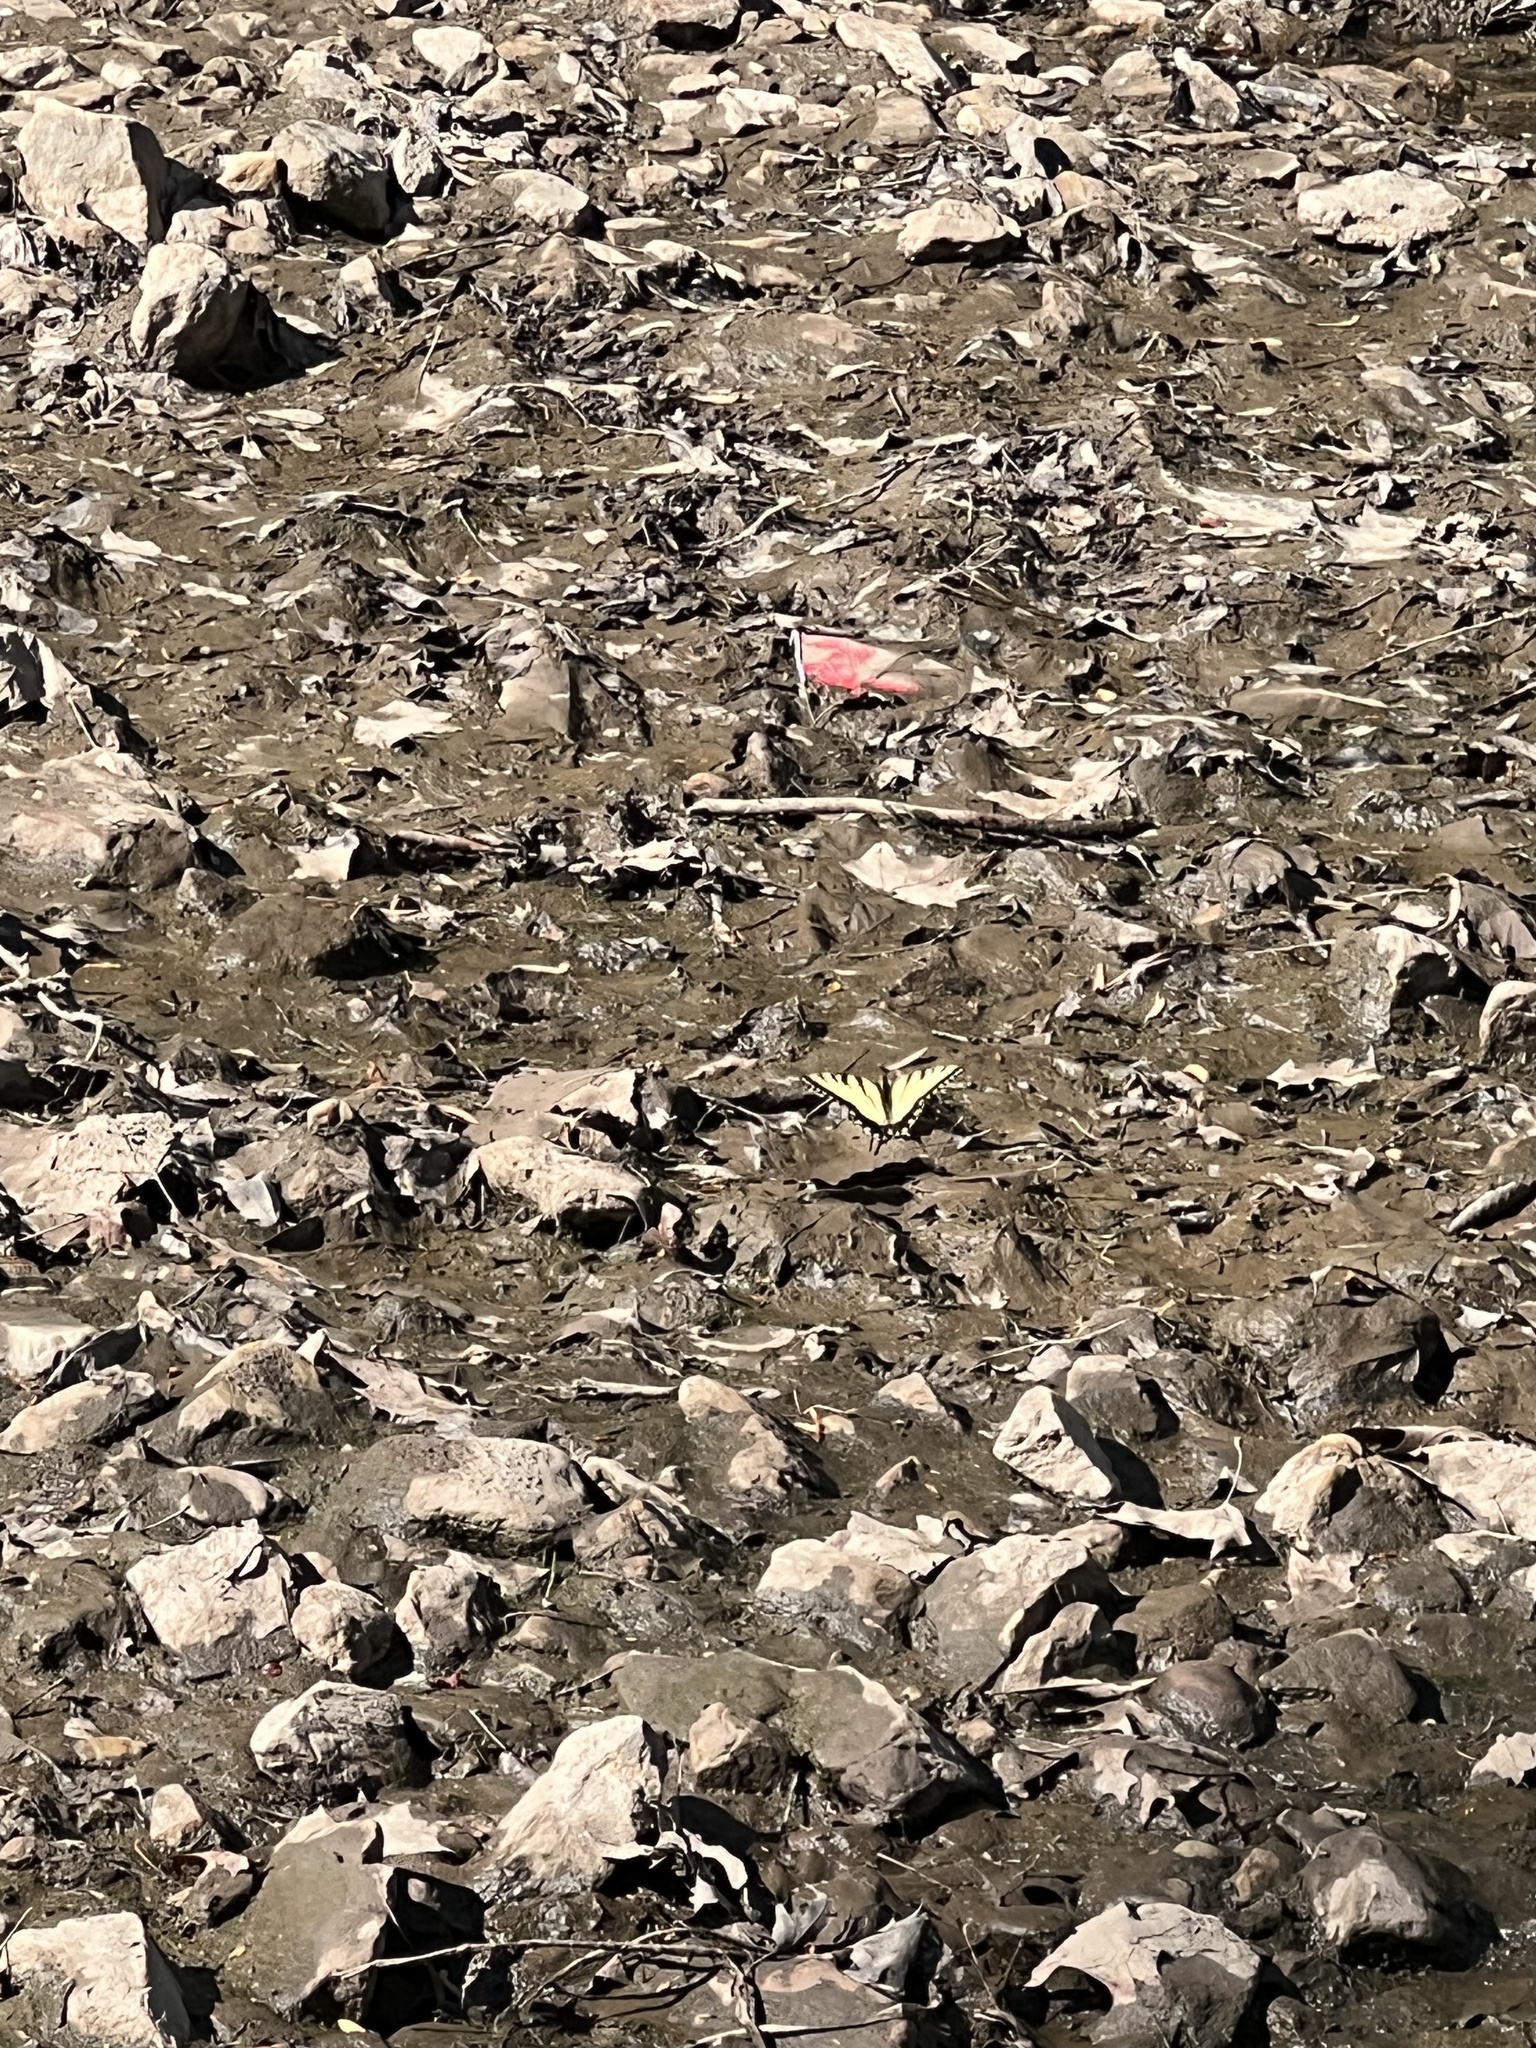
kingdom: Animalia
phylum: Arthropoda
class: Insecta
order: Lepidoptera
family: Papilionidae
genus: Papilio
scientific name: Papilio glaucus
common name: Tiger swallowtail
